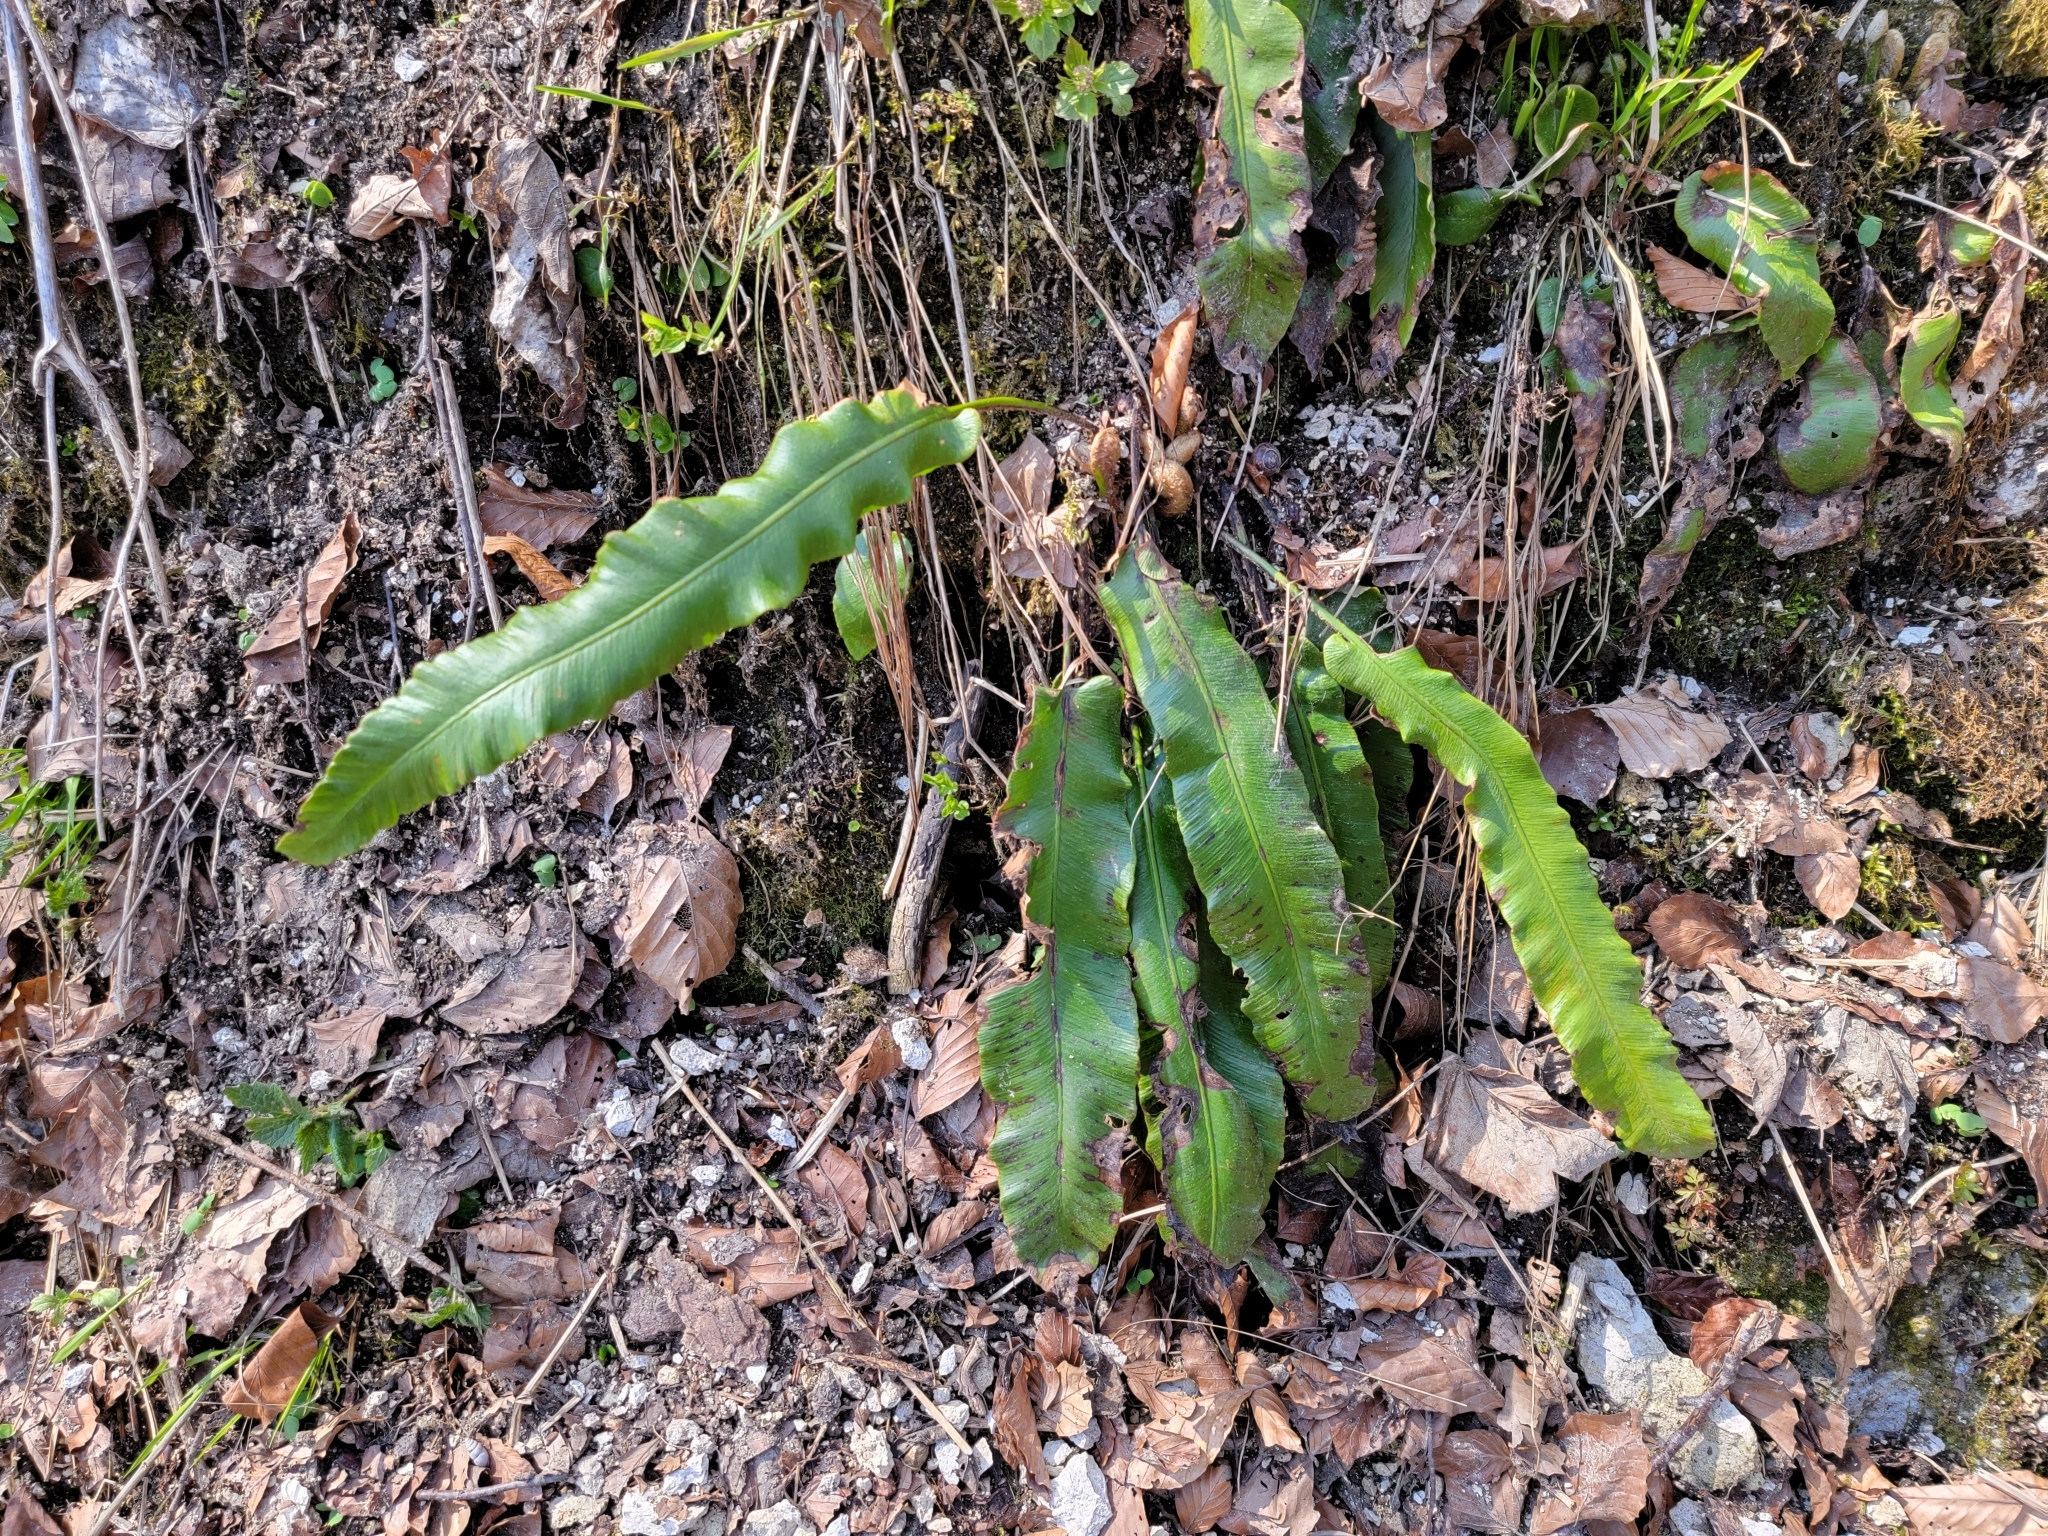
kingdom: Plantae
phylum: Tracheophyta
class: Polypodiopsida
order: Polypodiales
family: Aspleniaceae
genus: Asplenium
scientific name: Asplenium scolopendrium
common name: Hart's-tongue fern
